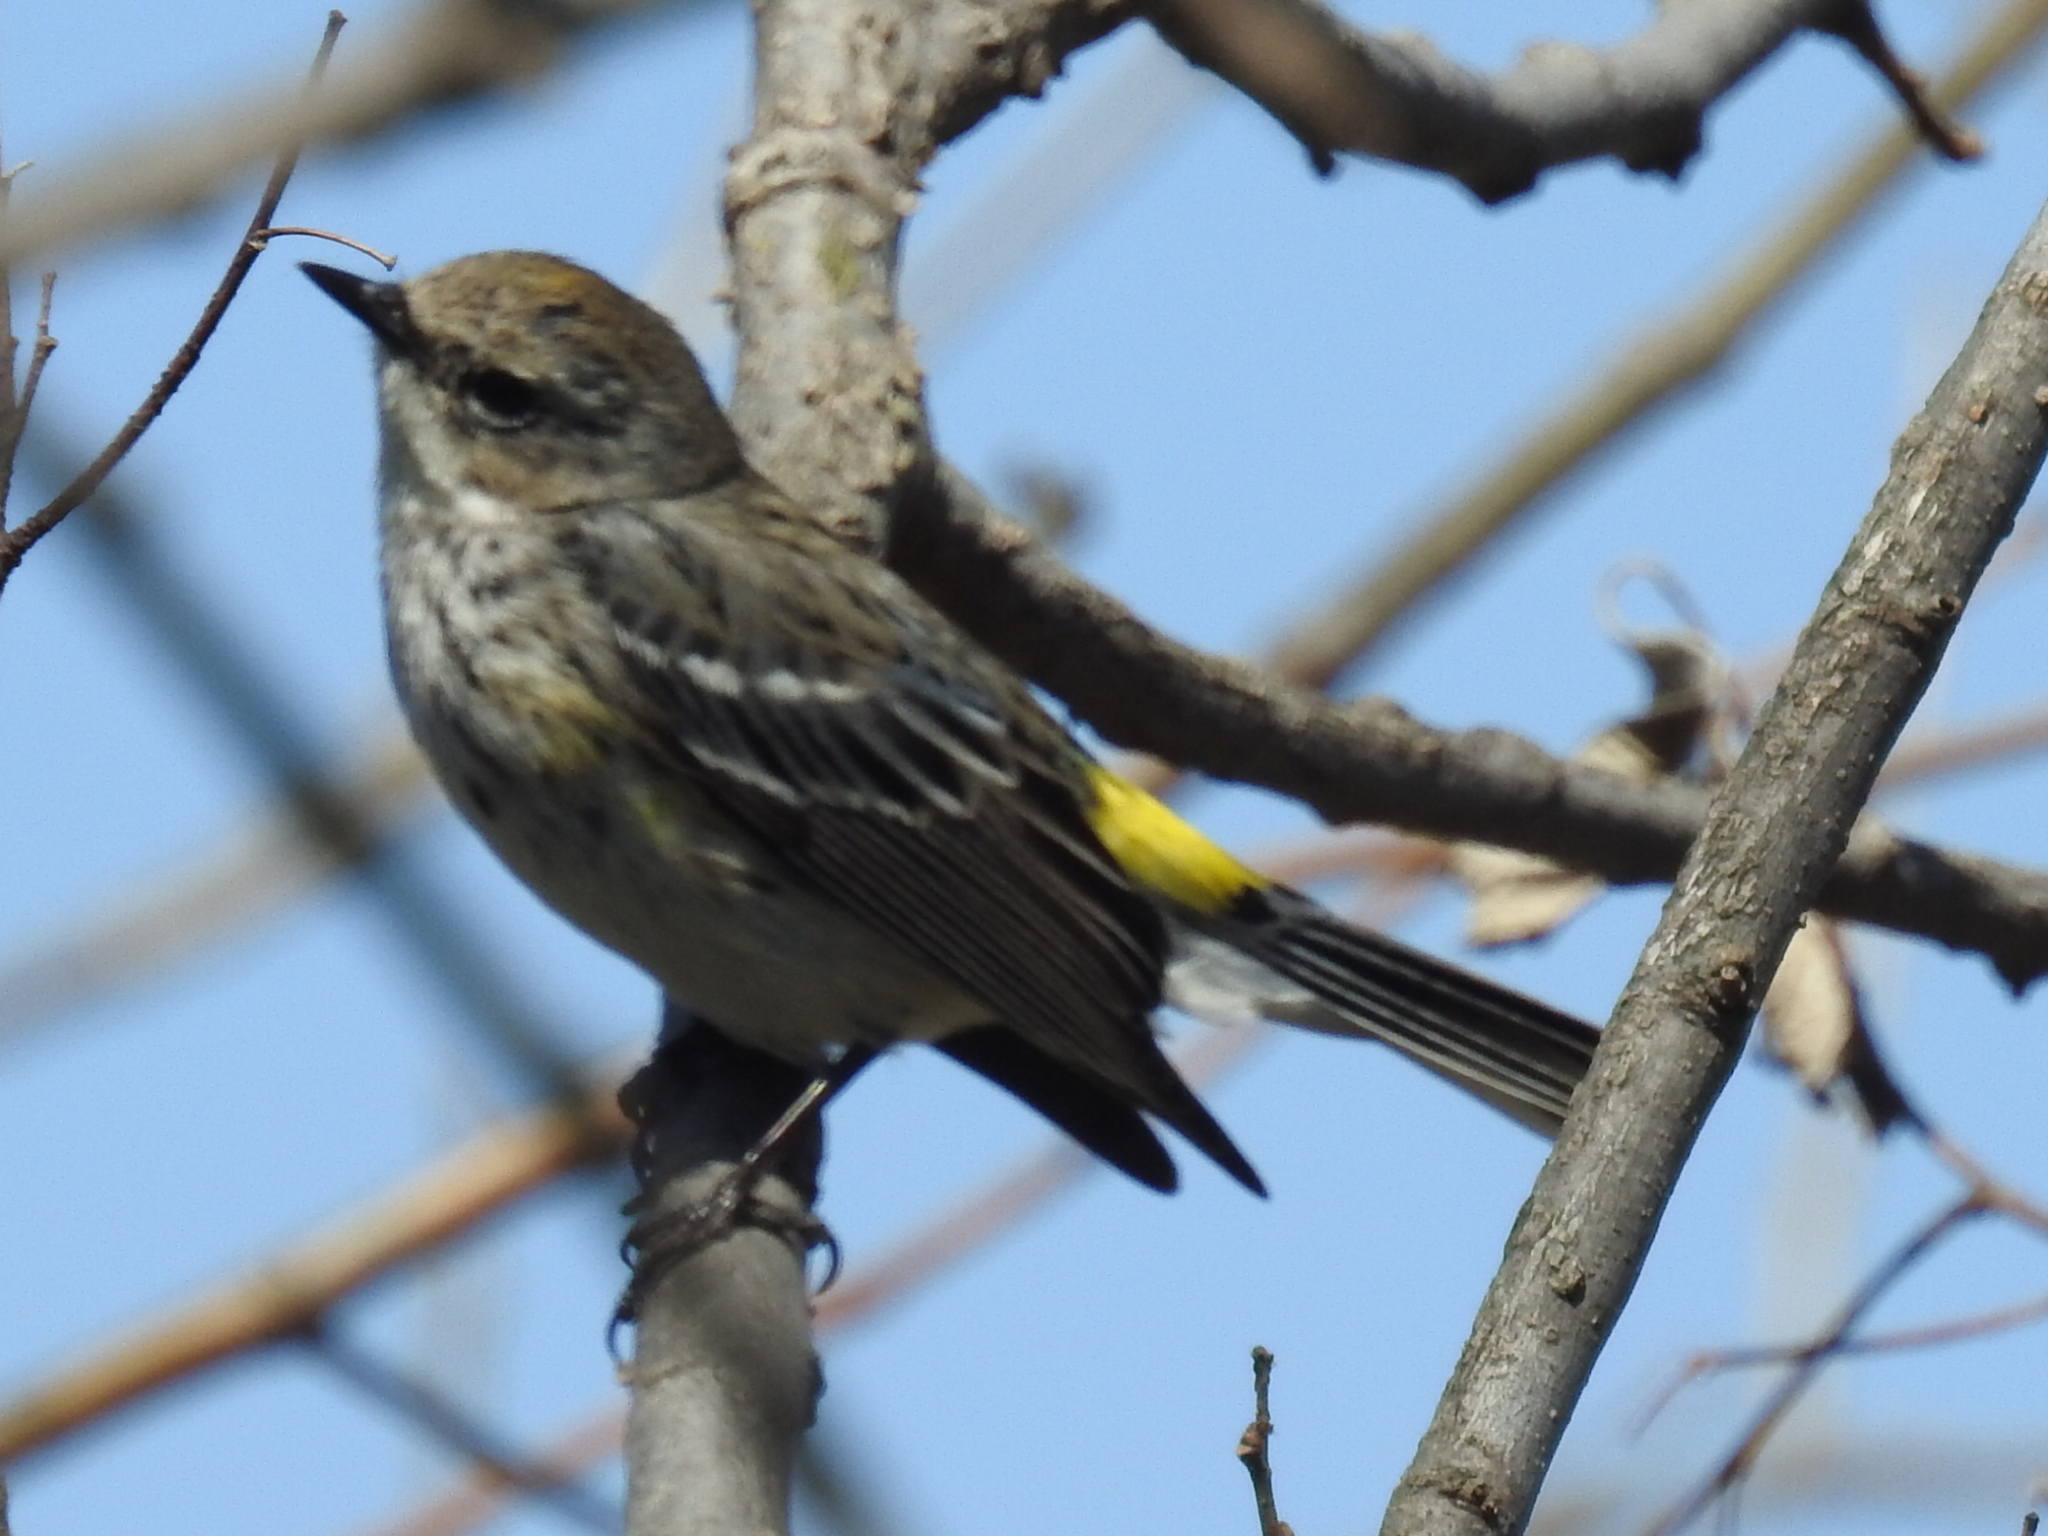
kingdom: Animalia
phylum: Chordata
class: Aves
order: Passeriformes
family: Parulidae
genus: Setophaga
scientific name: Setophaga coronata
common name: Myrtle warbler
